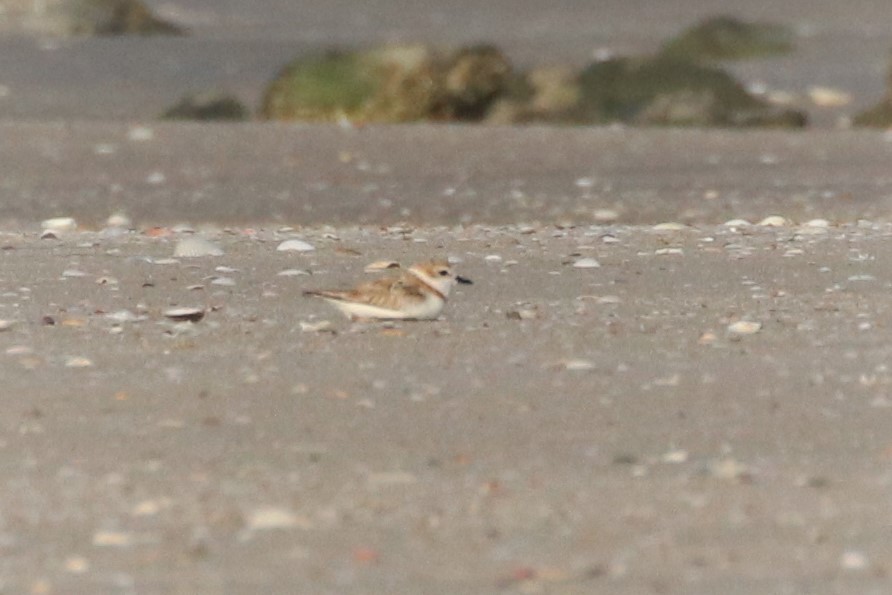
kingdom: Animalia
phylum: Chordata
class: Aves
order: Charadriiformes
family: Charadriidae
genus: Charadrius
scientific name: Charadrius alexandrinus
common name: Kentish plover
